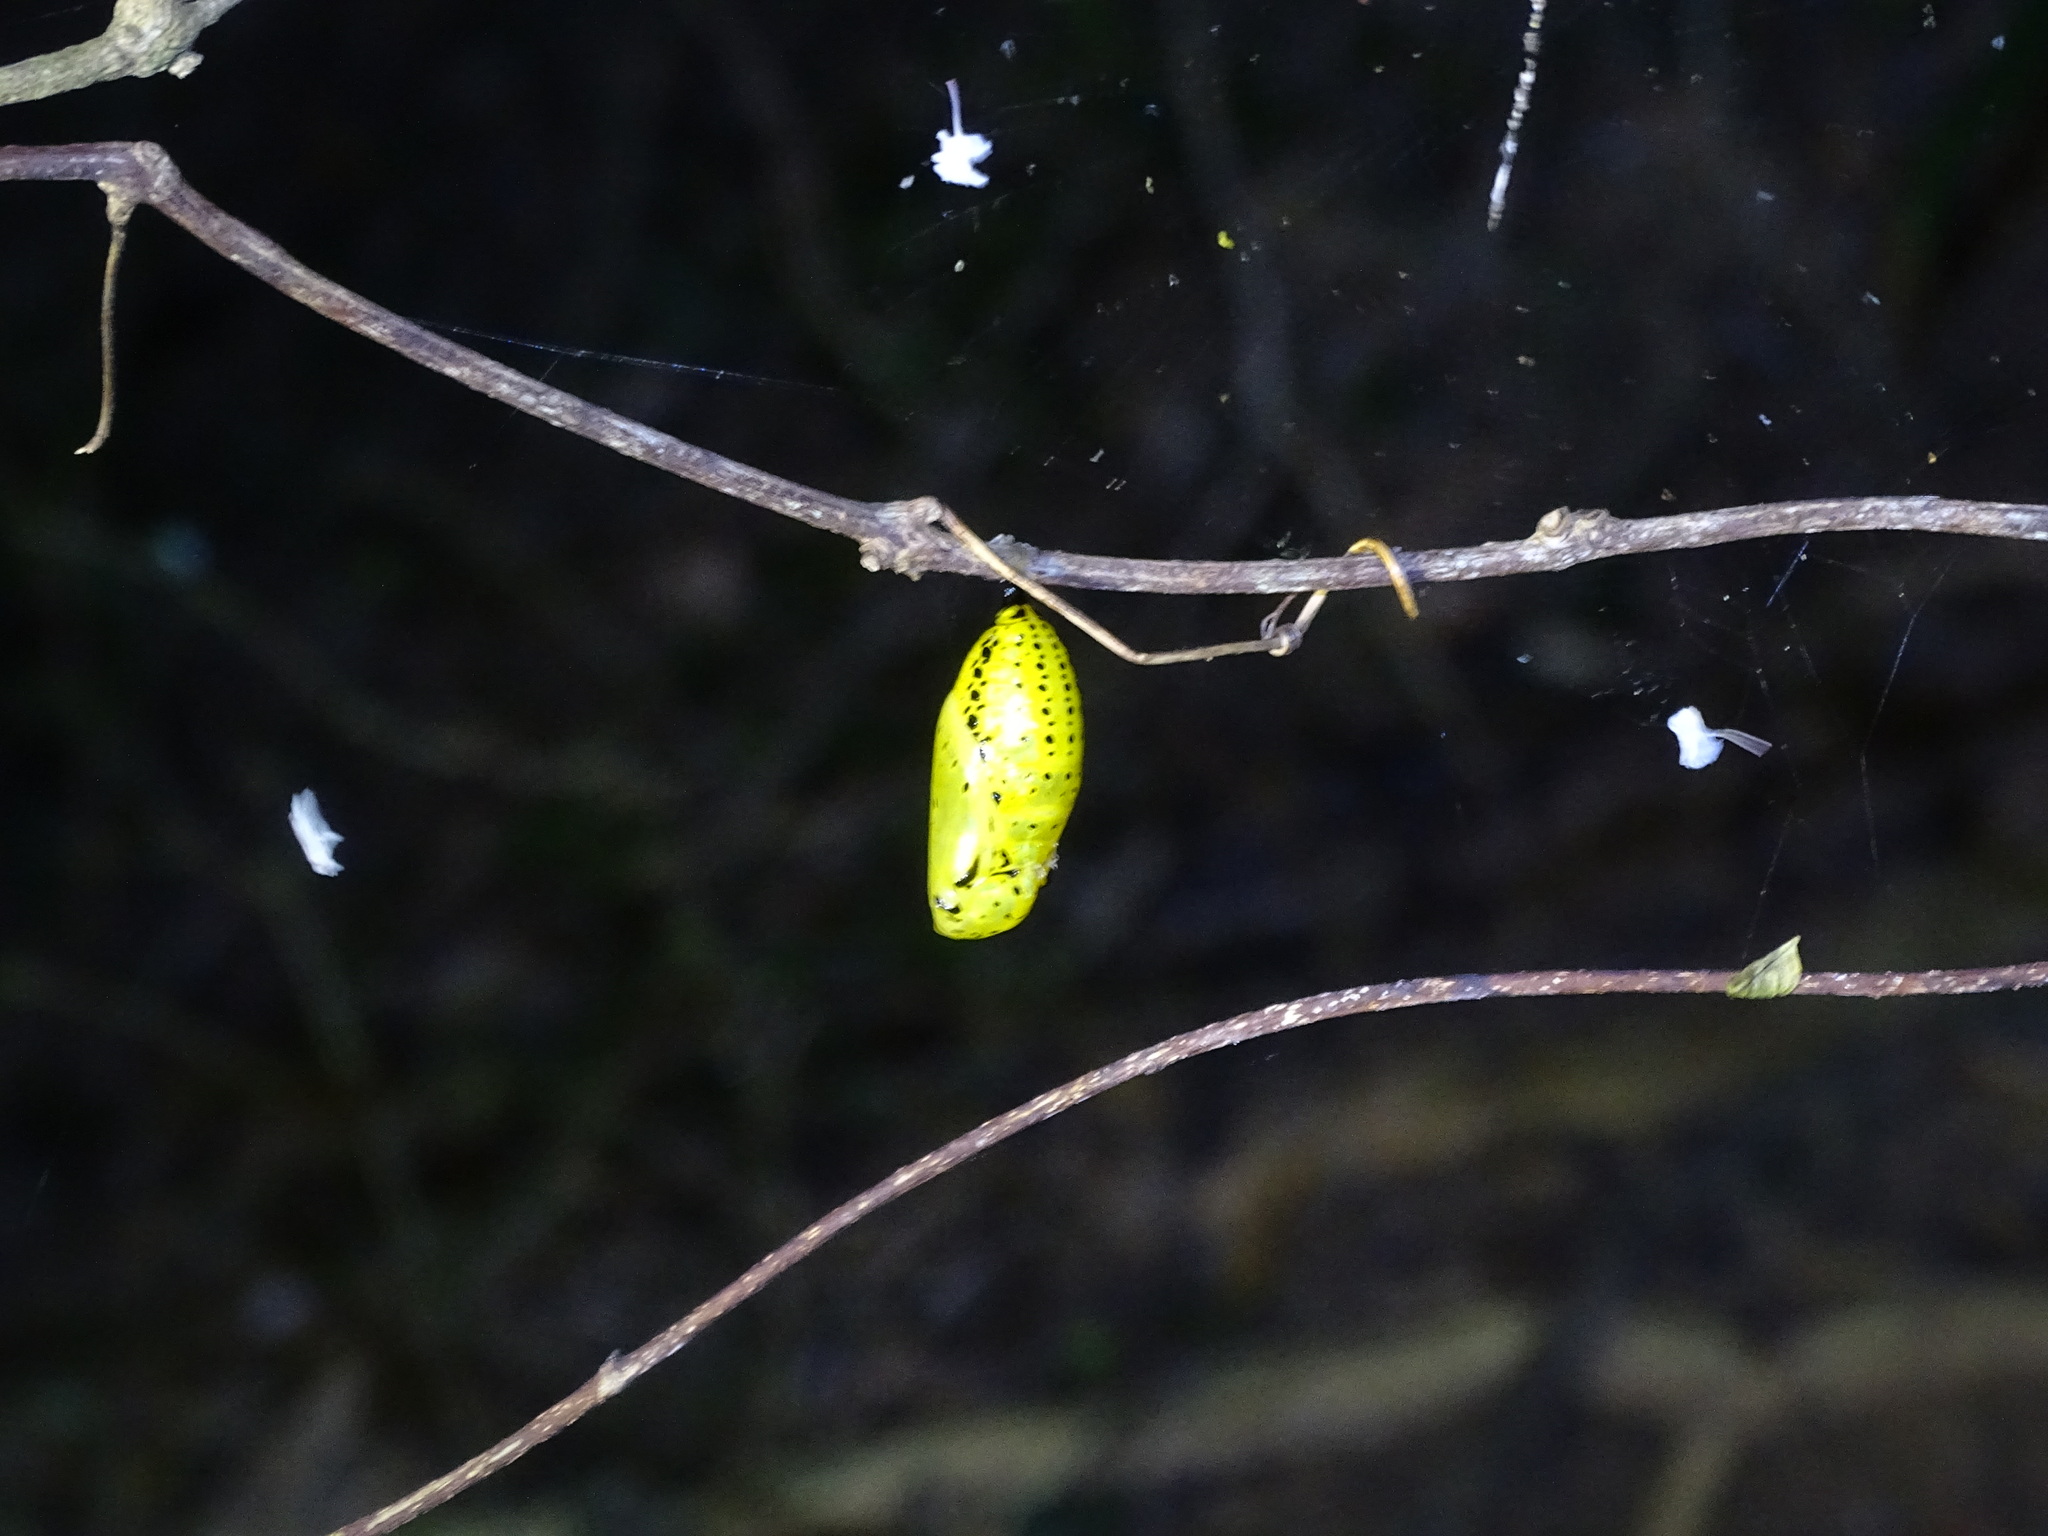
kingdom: Animalia
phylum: Arthropoda
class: Insecta
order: Lepidoptera
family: Nymphalidae
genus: Idea
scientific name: Idea leuconoe
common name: Rice paper butterfly
